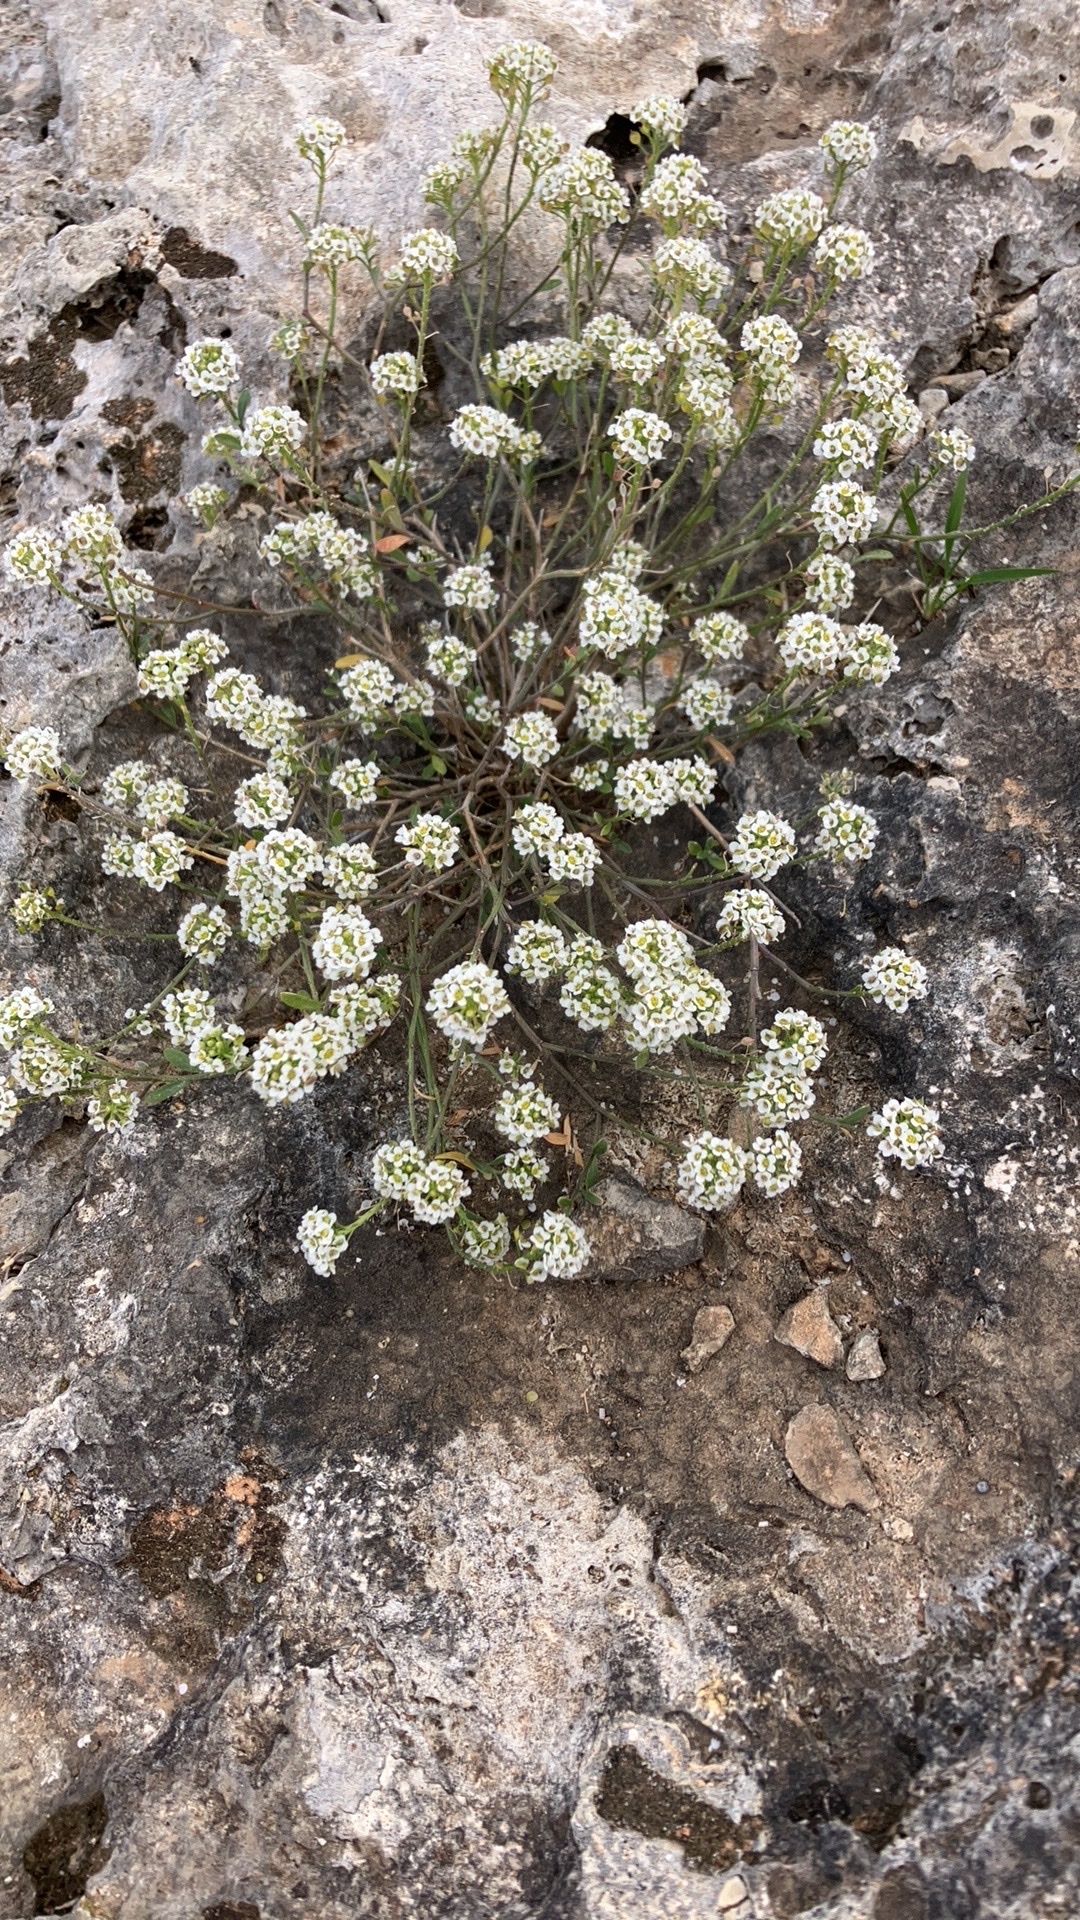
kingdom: Plantae
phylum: Tracheophyta
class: Magnoliopsida
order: Brassicales
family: Brassicaceae
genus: Lobularia
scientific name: Lobularia maritima
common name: Sweet alison
